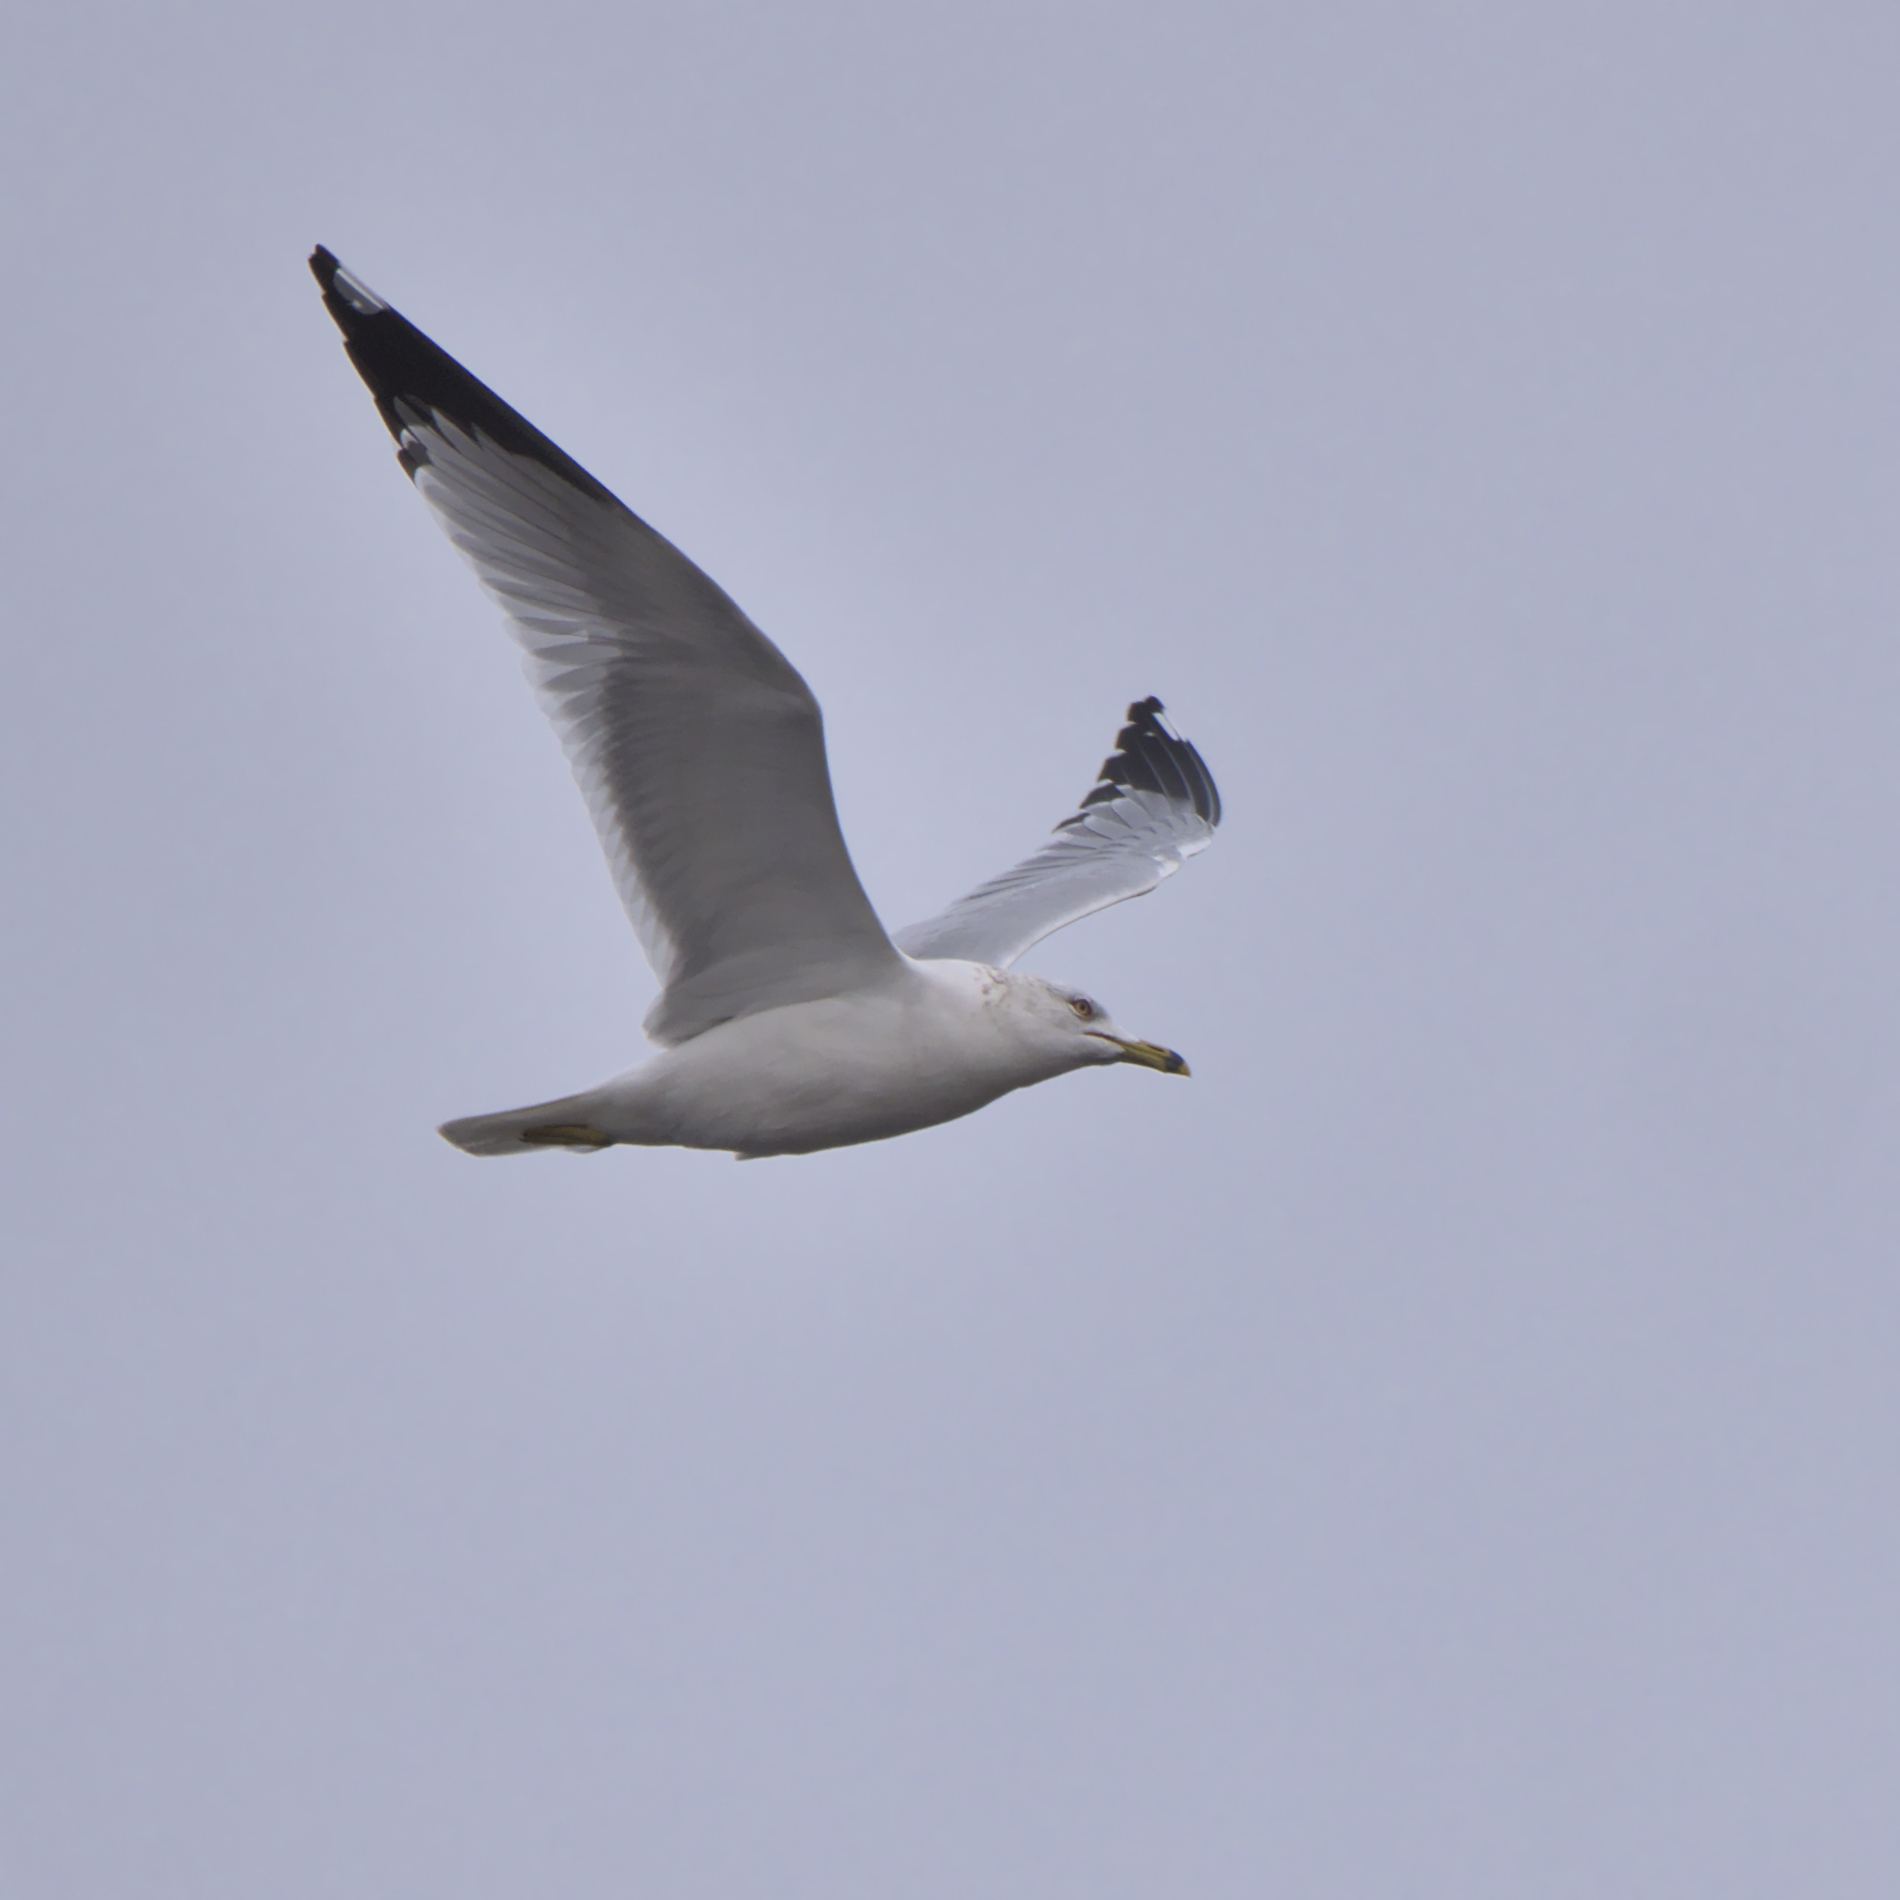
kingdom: Animalia
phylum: Chordata
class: Aves
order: Charadriiformes
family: Laridae
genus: Larus
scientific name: Larus delawarensis
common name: Ring-billed gull
